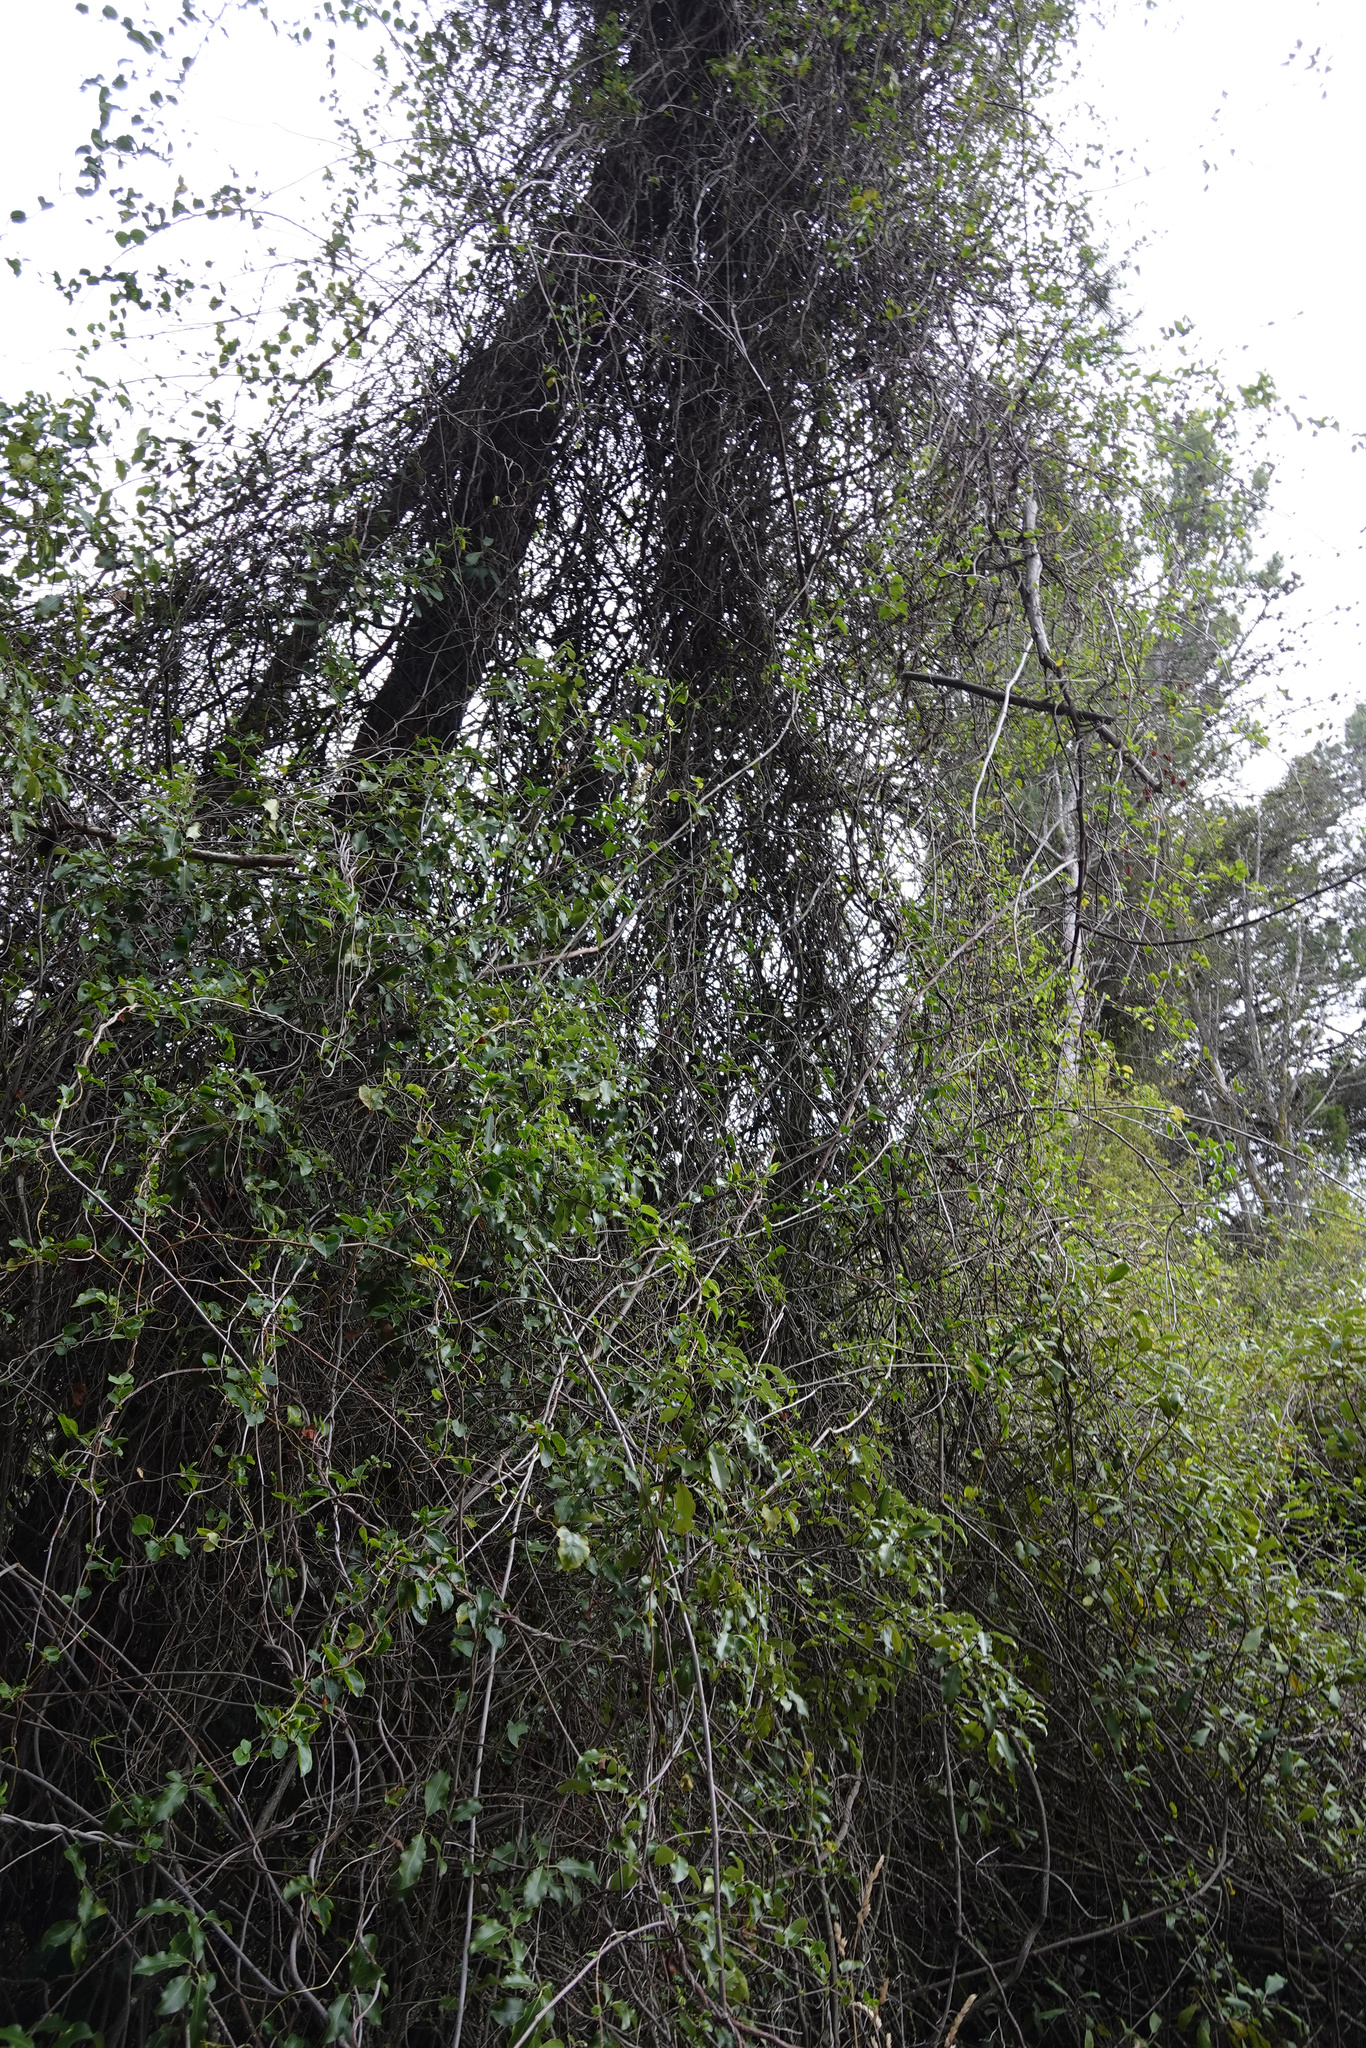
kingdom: Plantae
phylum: Tracheophyta
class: Magnoliopsida
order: Caryophyllales
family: Polygonaceae
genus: Muehlenbeckia
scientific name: Muehlenbeckia australis
